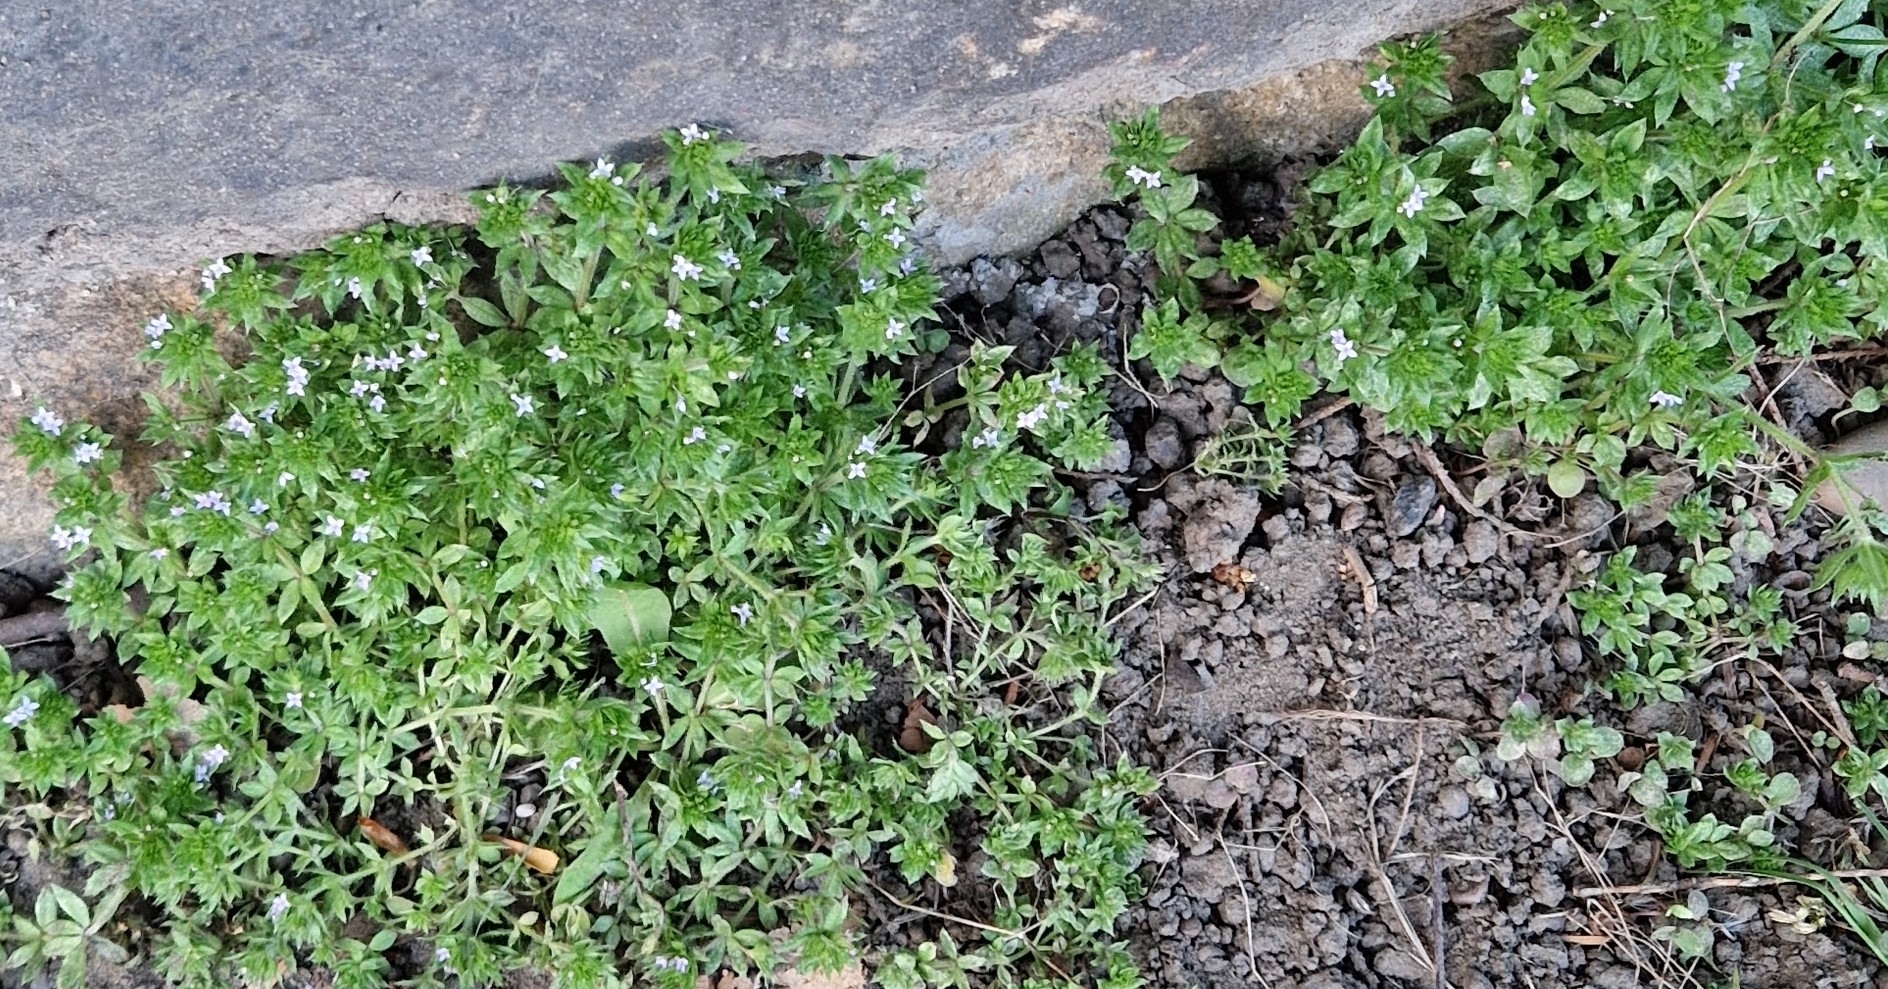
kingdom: Plantae
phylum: Tracheophyta
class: Magnoliopsida
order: Gentianales
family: Rubiaceae
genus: Sherardia
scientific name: Sherardia arvensis
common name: Field madder
